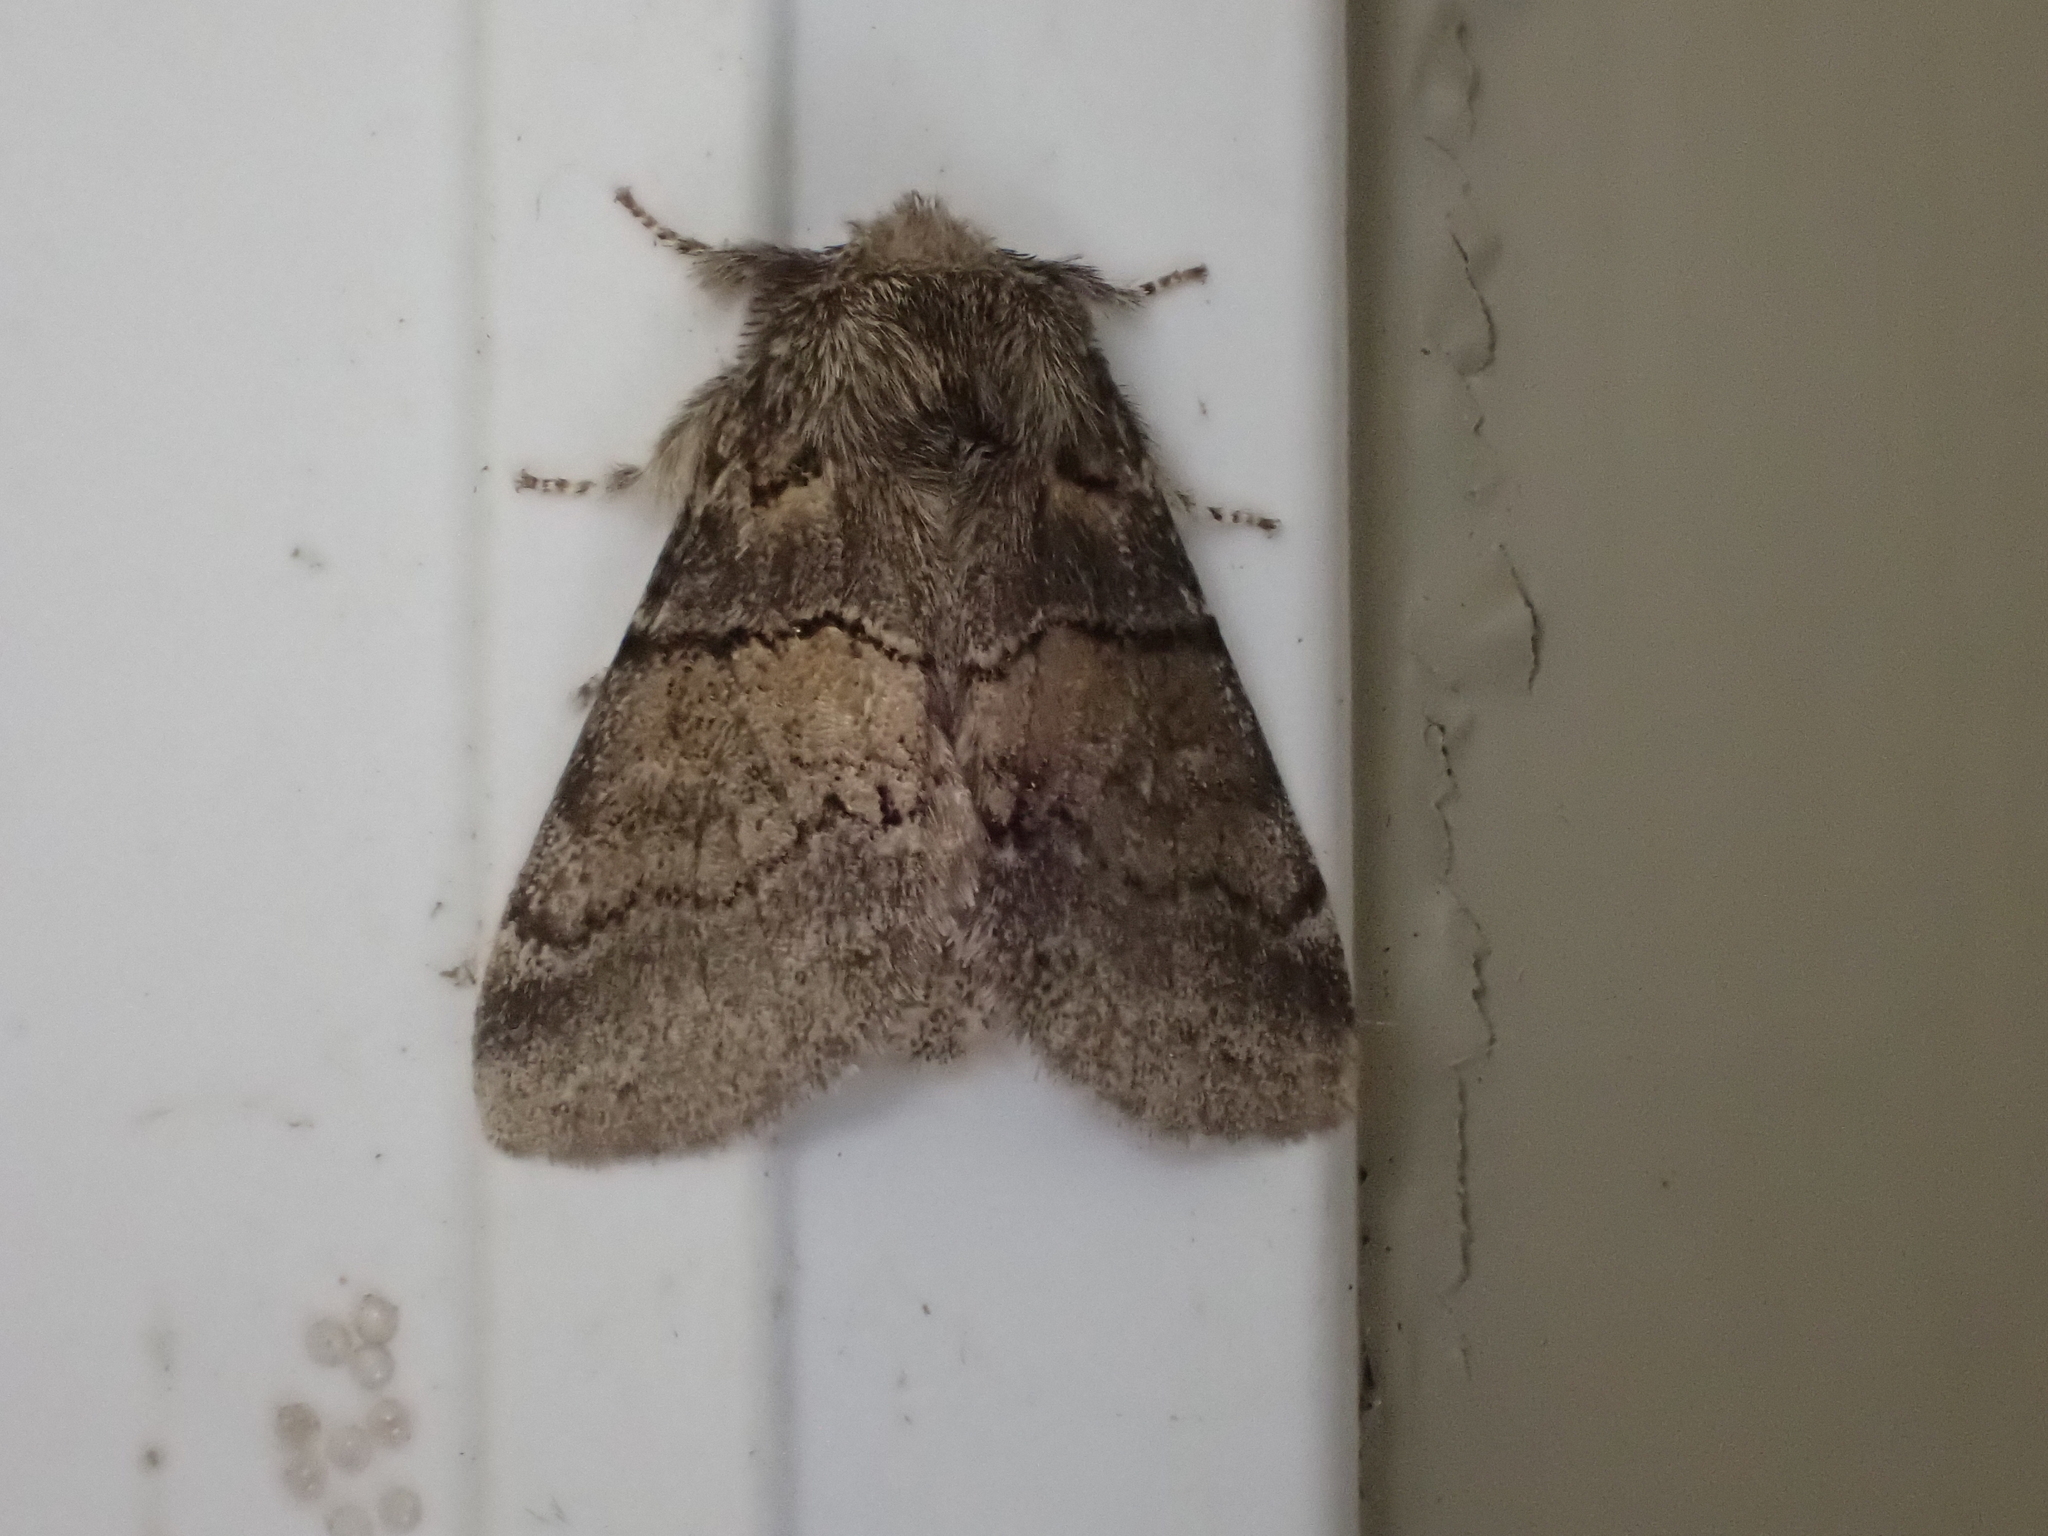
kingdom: Animalia
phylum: Arthropoda
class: Insecta
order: Lepidoptera
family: Notodontidae
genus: Gluphisia
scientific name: Gluphisia septentrionis
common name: Common gluphisia
